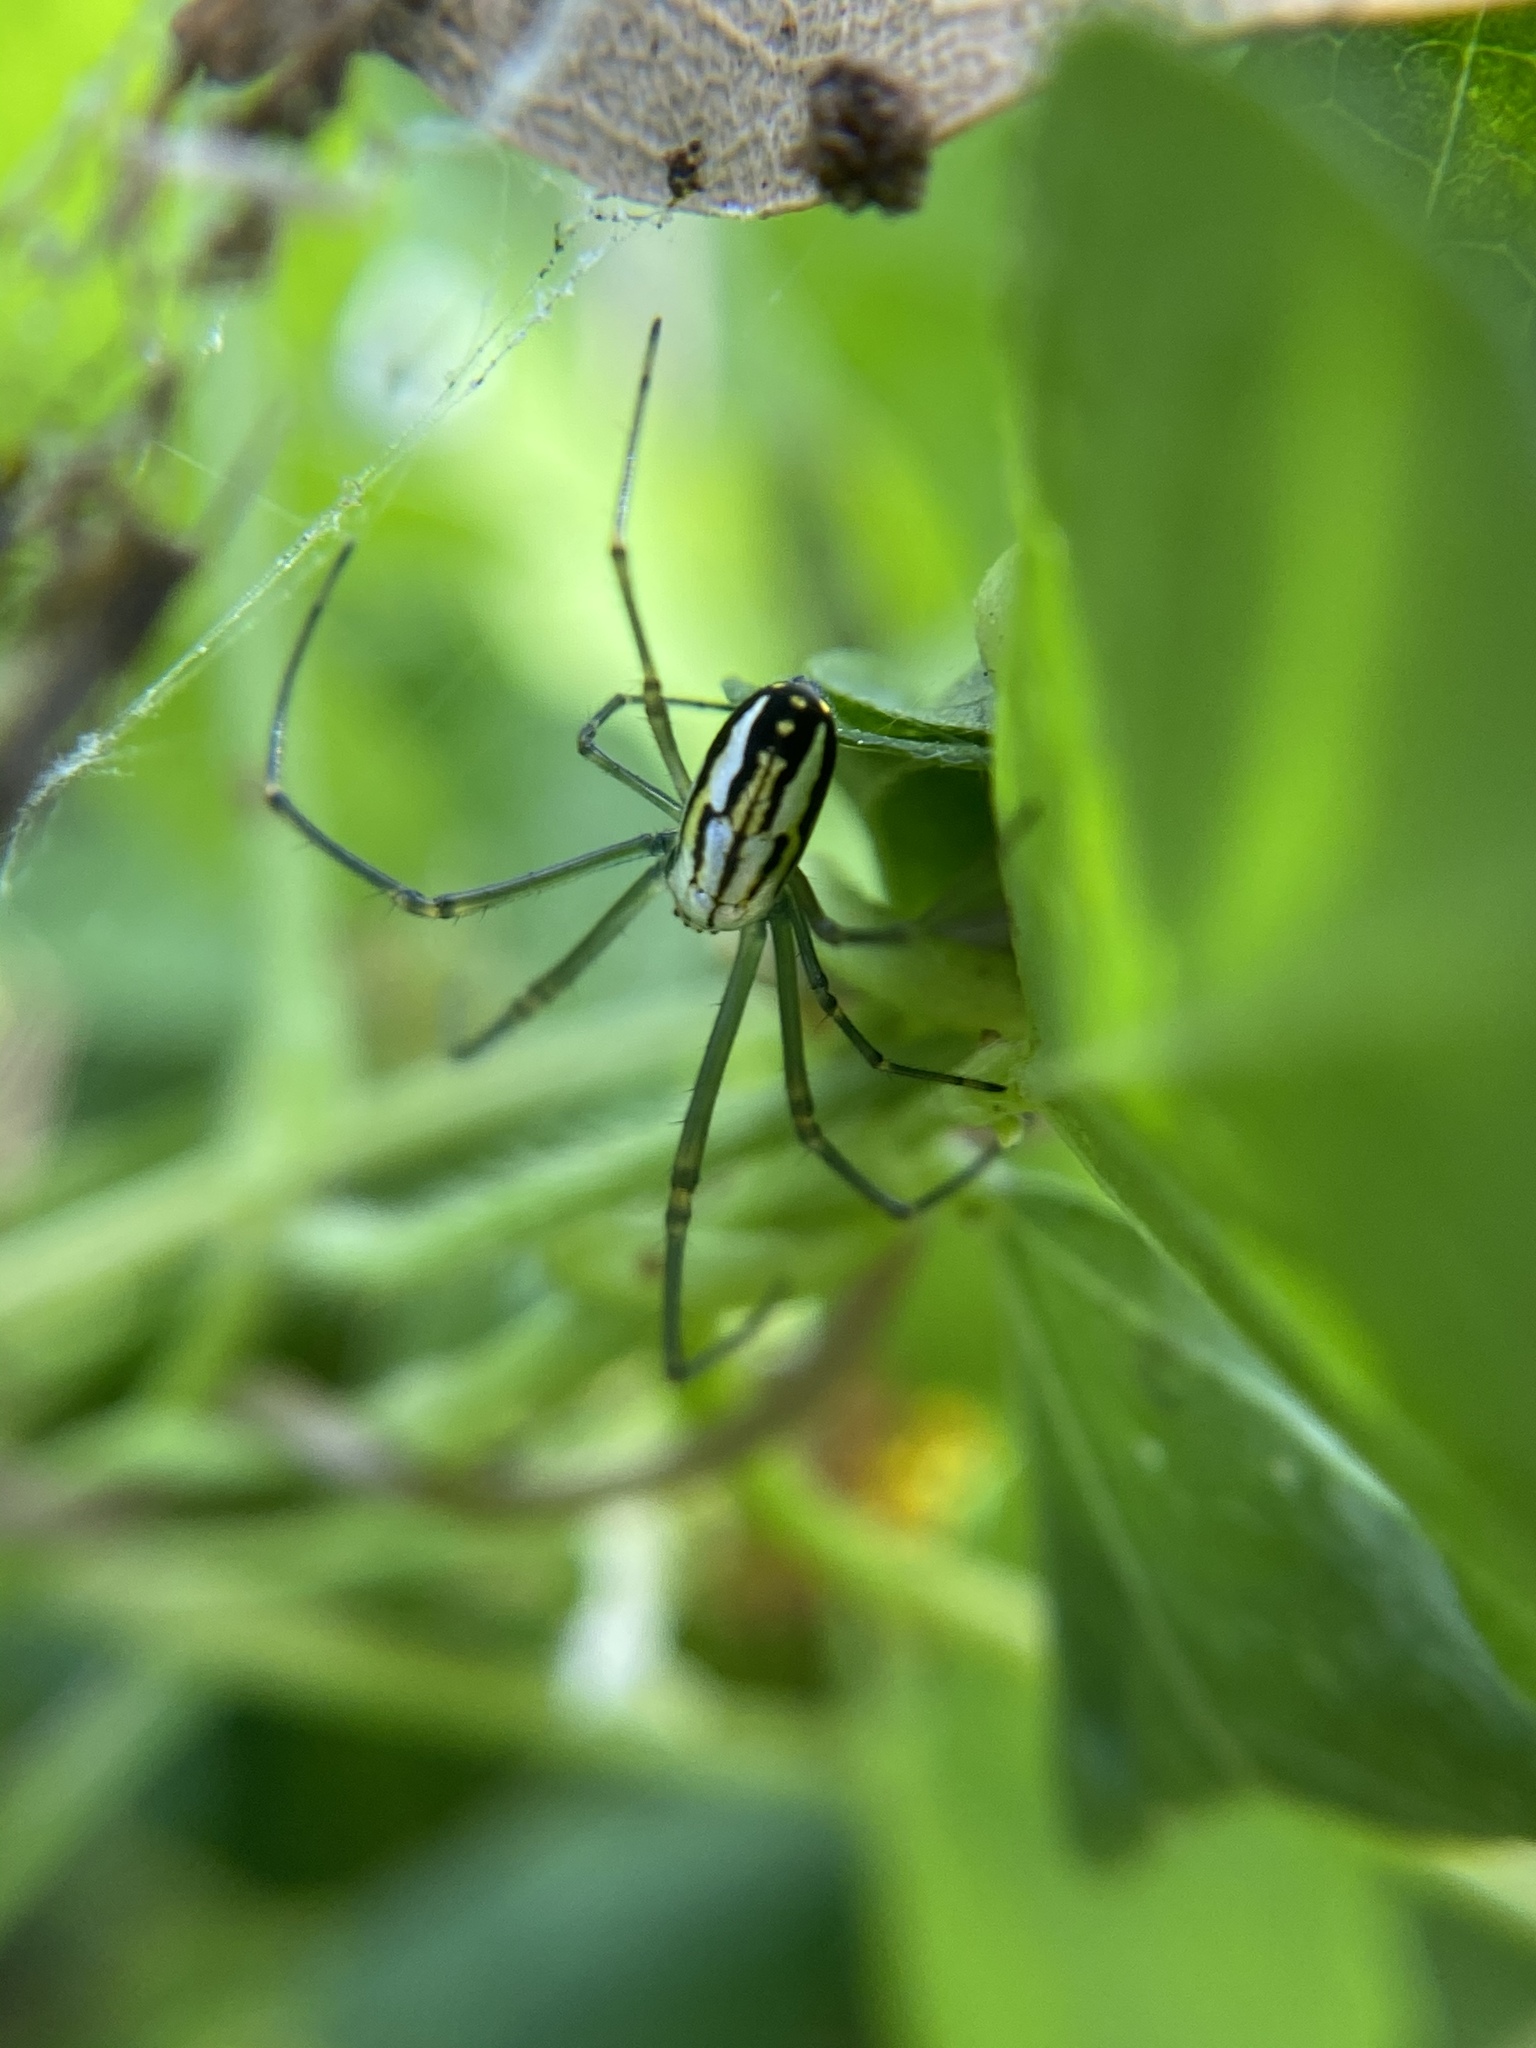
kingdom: Animalia
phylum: Arthropoda
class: Arachnida
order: Araneae
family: Tetragnathidae
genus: Leucauge
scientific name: Leucauge argyra
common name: Longjawed orb weavers
